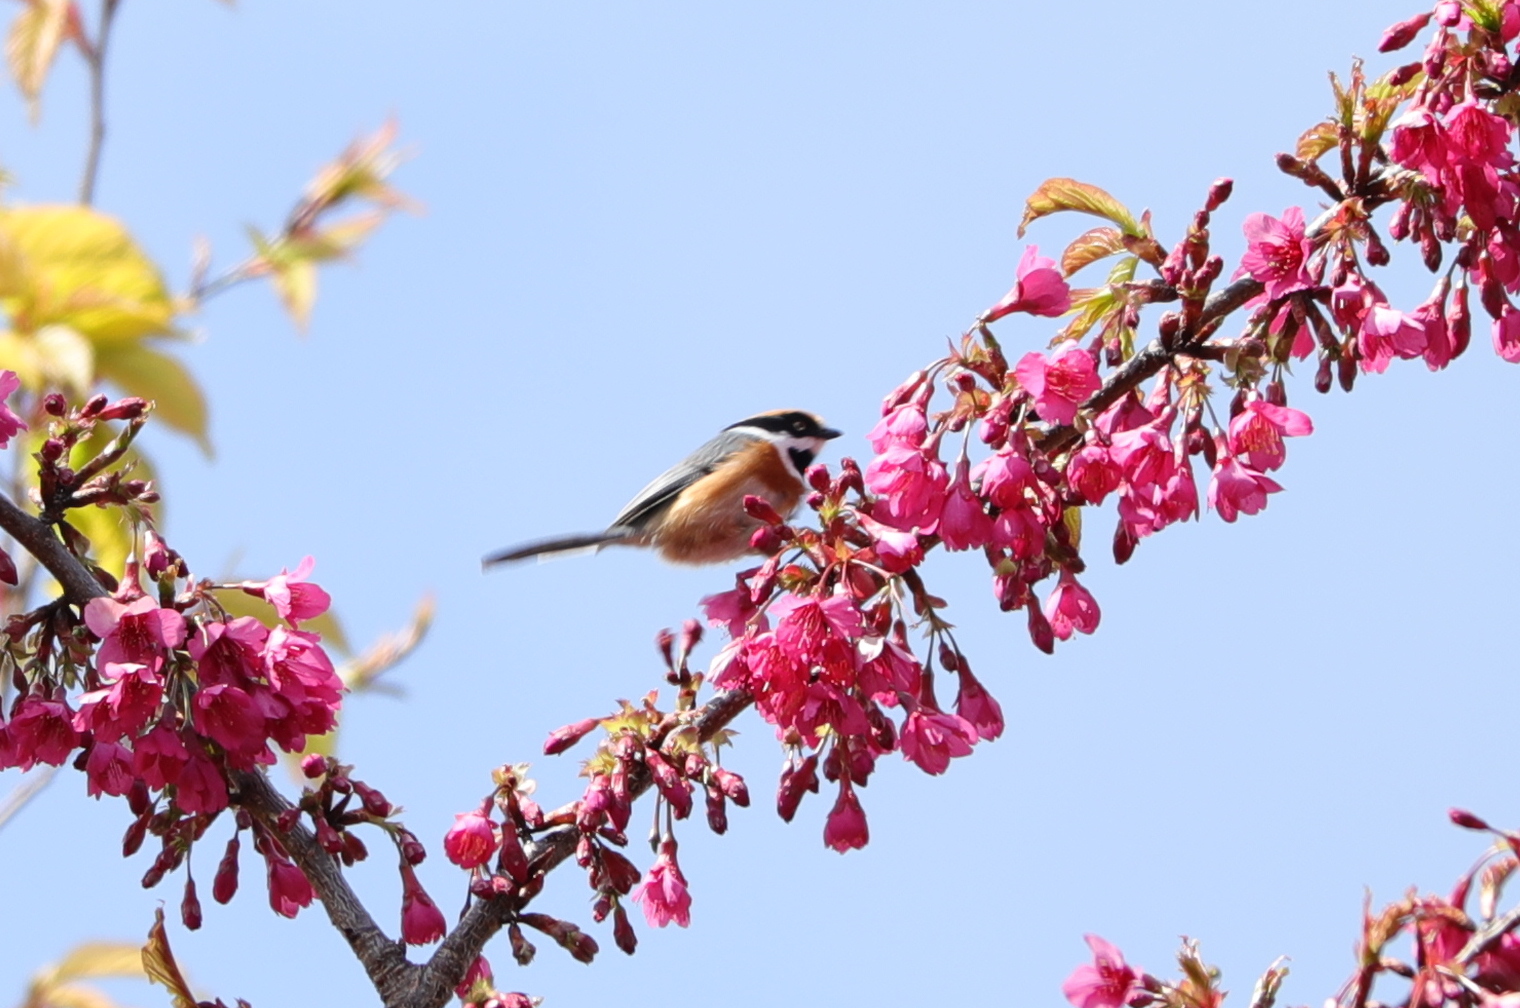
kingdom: Animalia
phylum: Chordata
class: Aves
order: Passeriformes
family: Aegithalidae
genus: Aegithalos
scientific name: Aegithalos concinnus
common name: Black-throated bushtit
